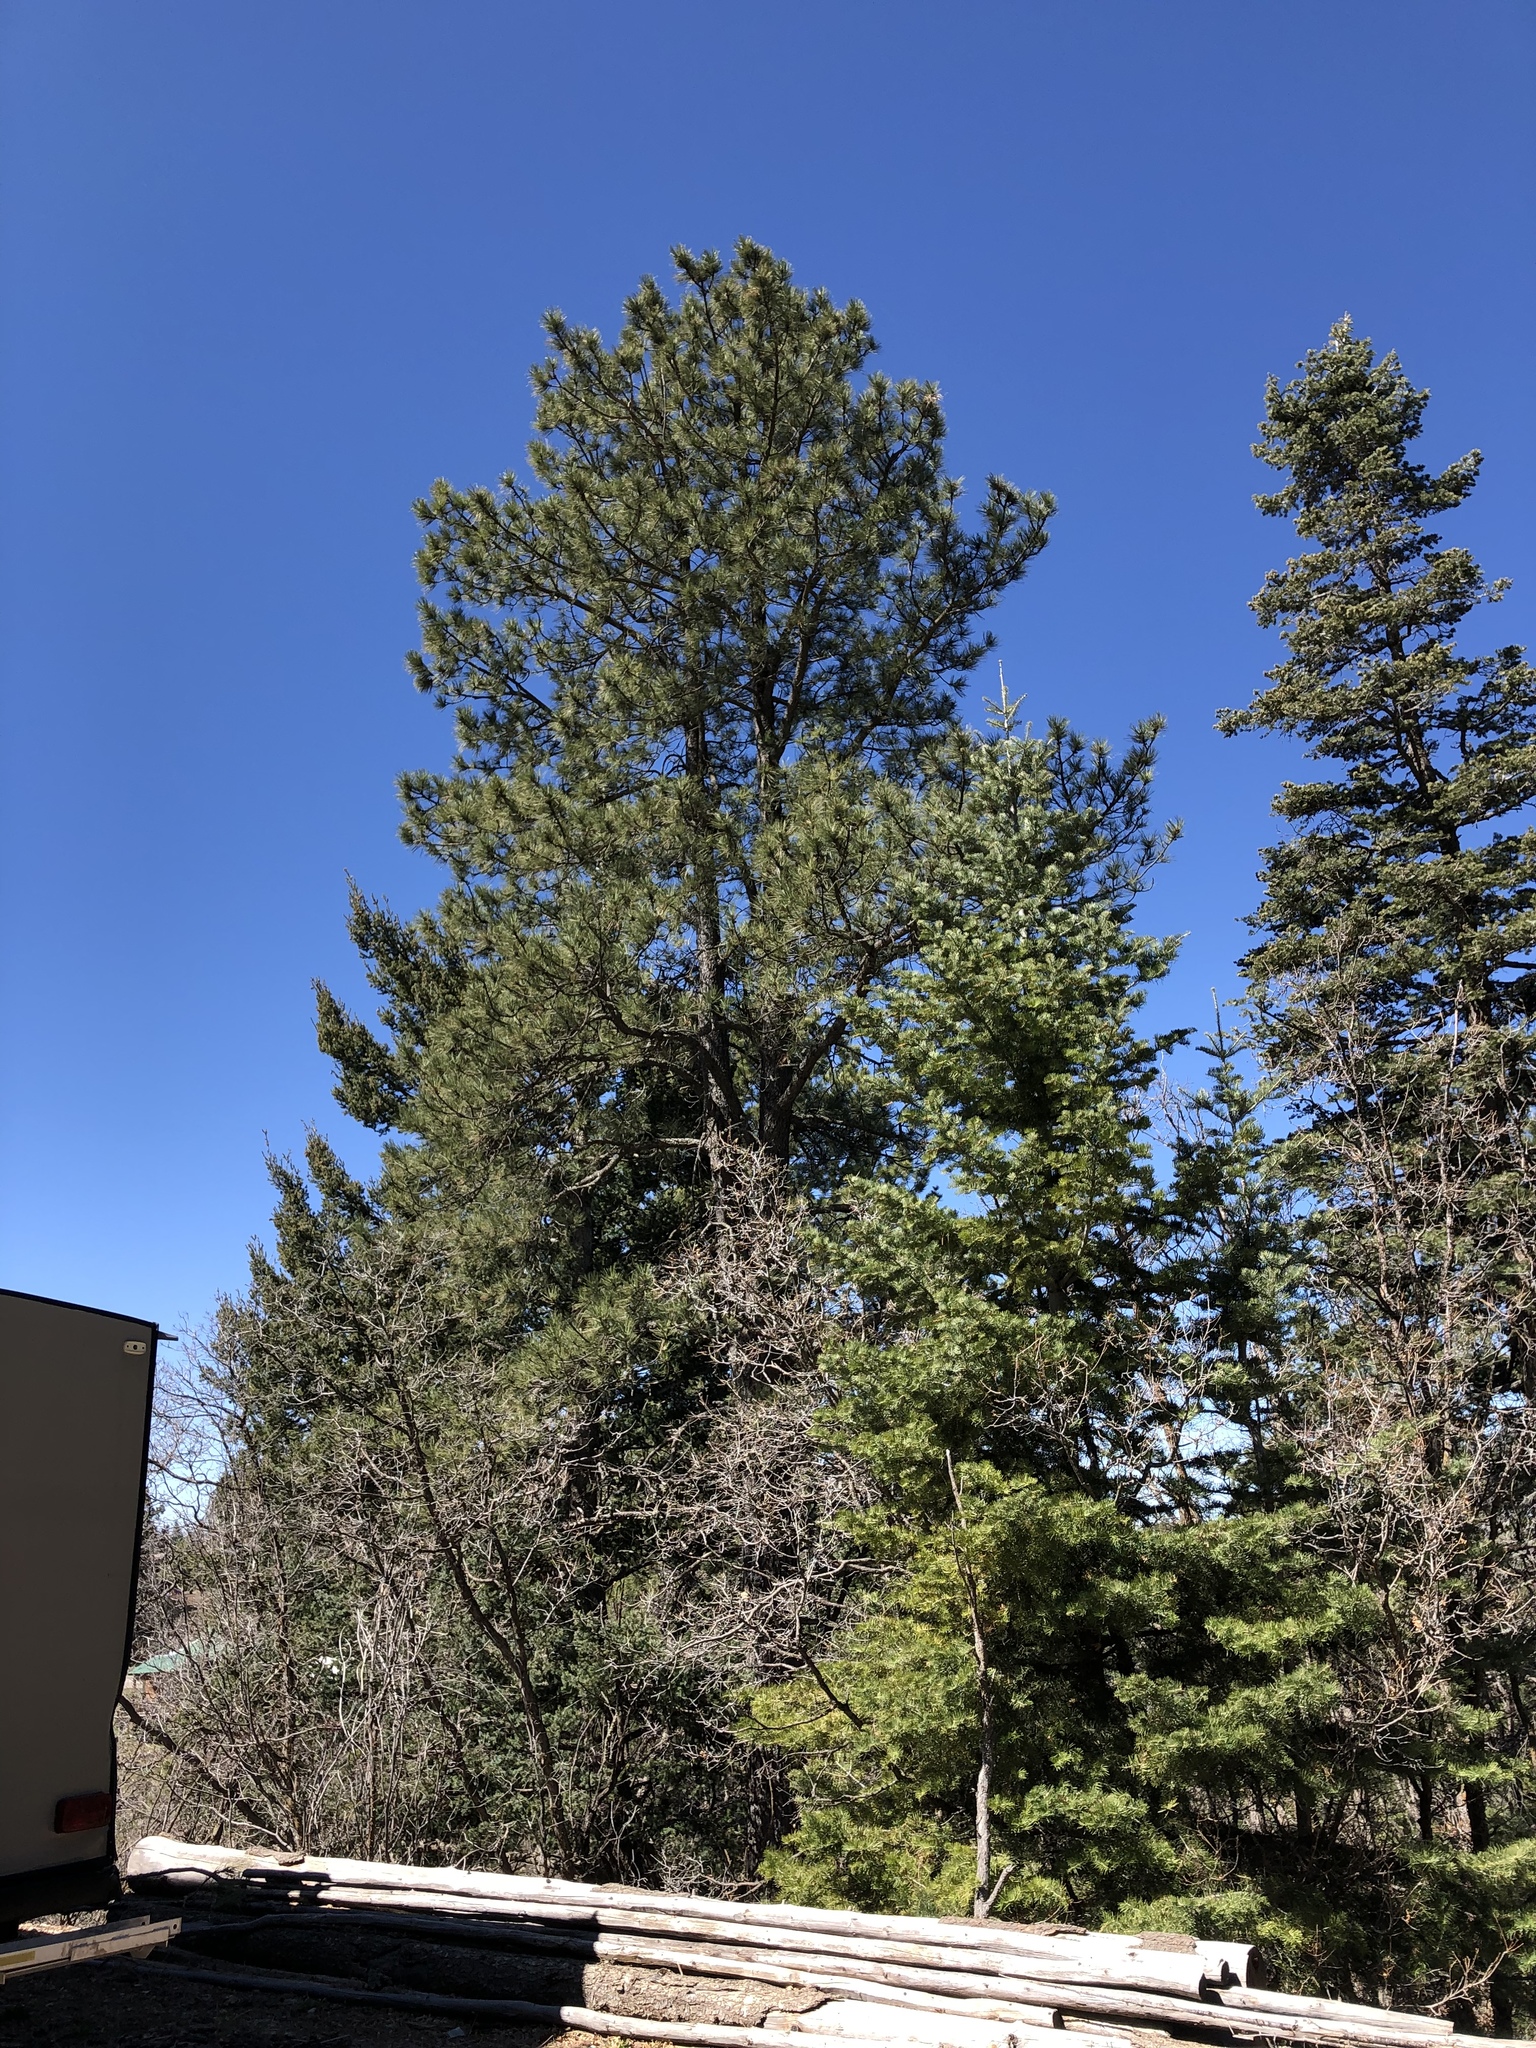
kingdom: Plantae
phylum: Tracheophyta
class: Pinopsida
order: Pinales
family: Pinaceae
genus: Pinus
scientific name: Pinus ponderosa
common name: Western yellow-pine
